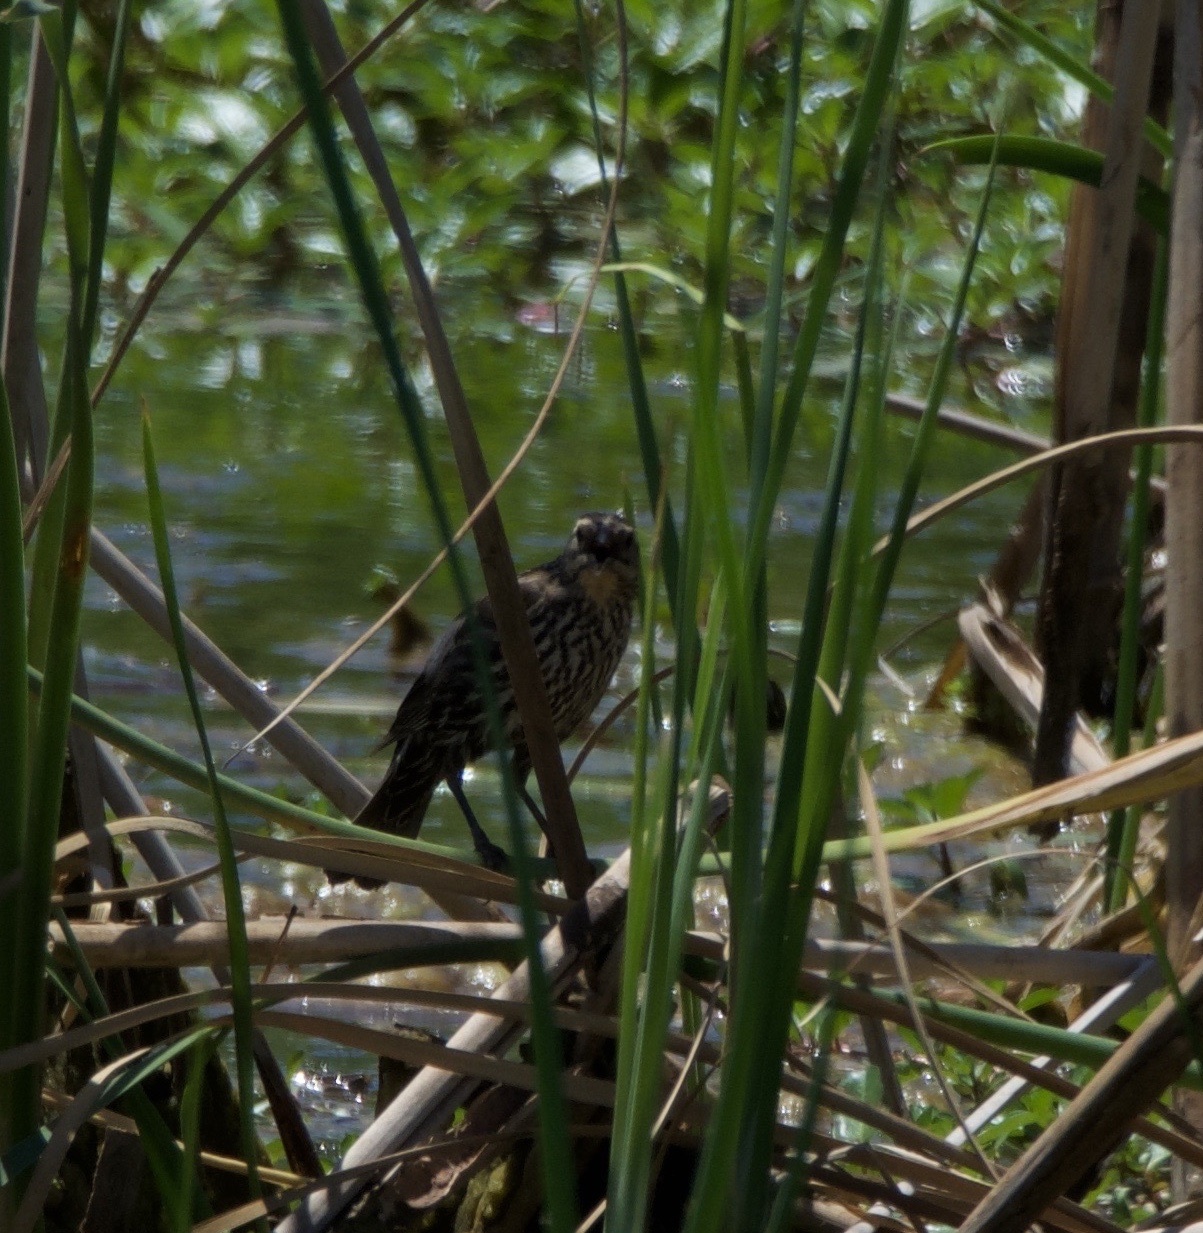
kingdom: Animalia
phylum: Chordata
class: Aves
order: Passeriformes
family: Icteridae
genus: Agelaius
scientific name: Agelaius phoeniceus
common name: Red-winged blackbird
